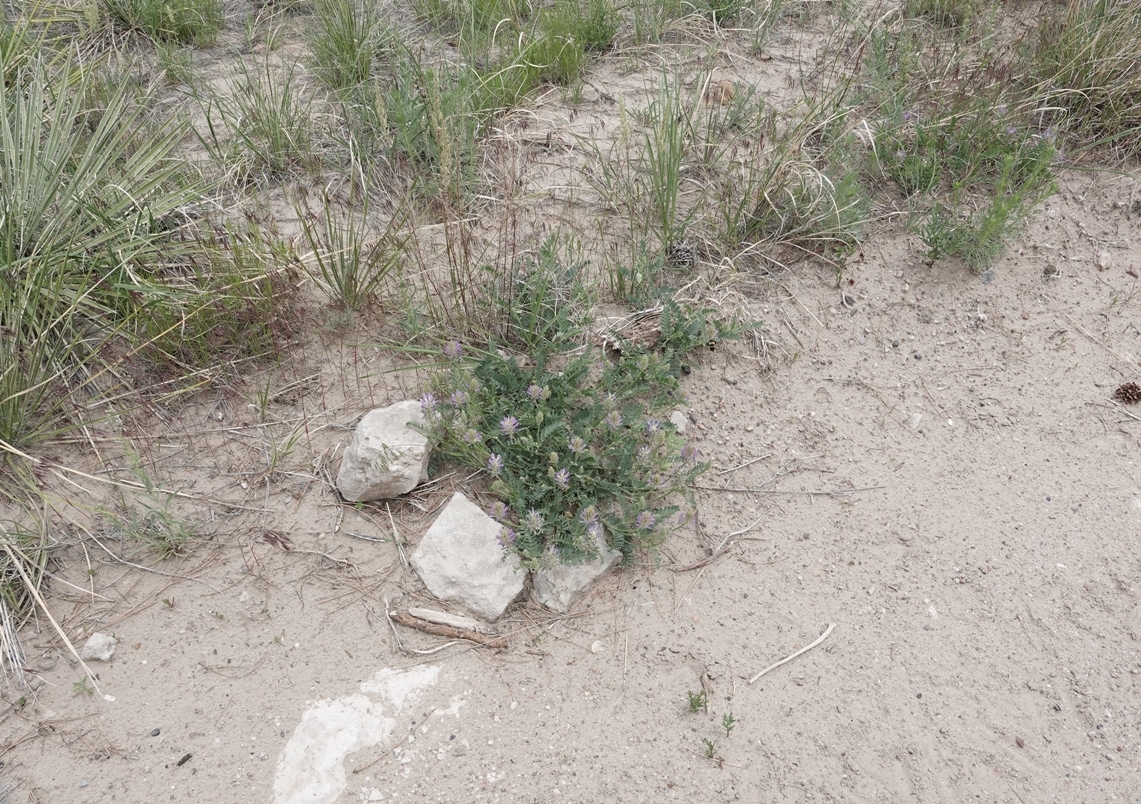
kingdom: Plantae
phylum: Tracheophyta
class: Magnoliopsida
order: Fabales
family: Fabaceae
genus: Astragalus
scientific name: Astragalus laxmannii
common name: Laxmann's milk-vetch
